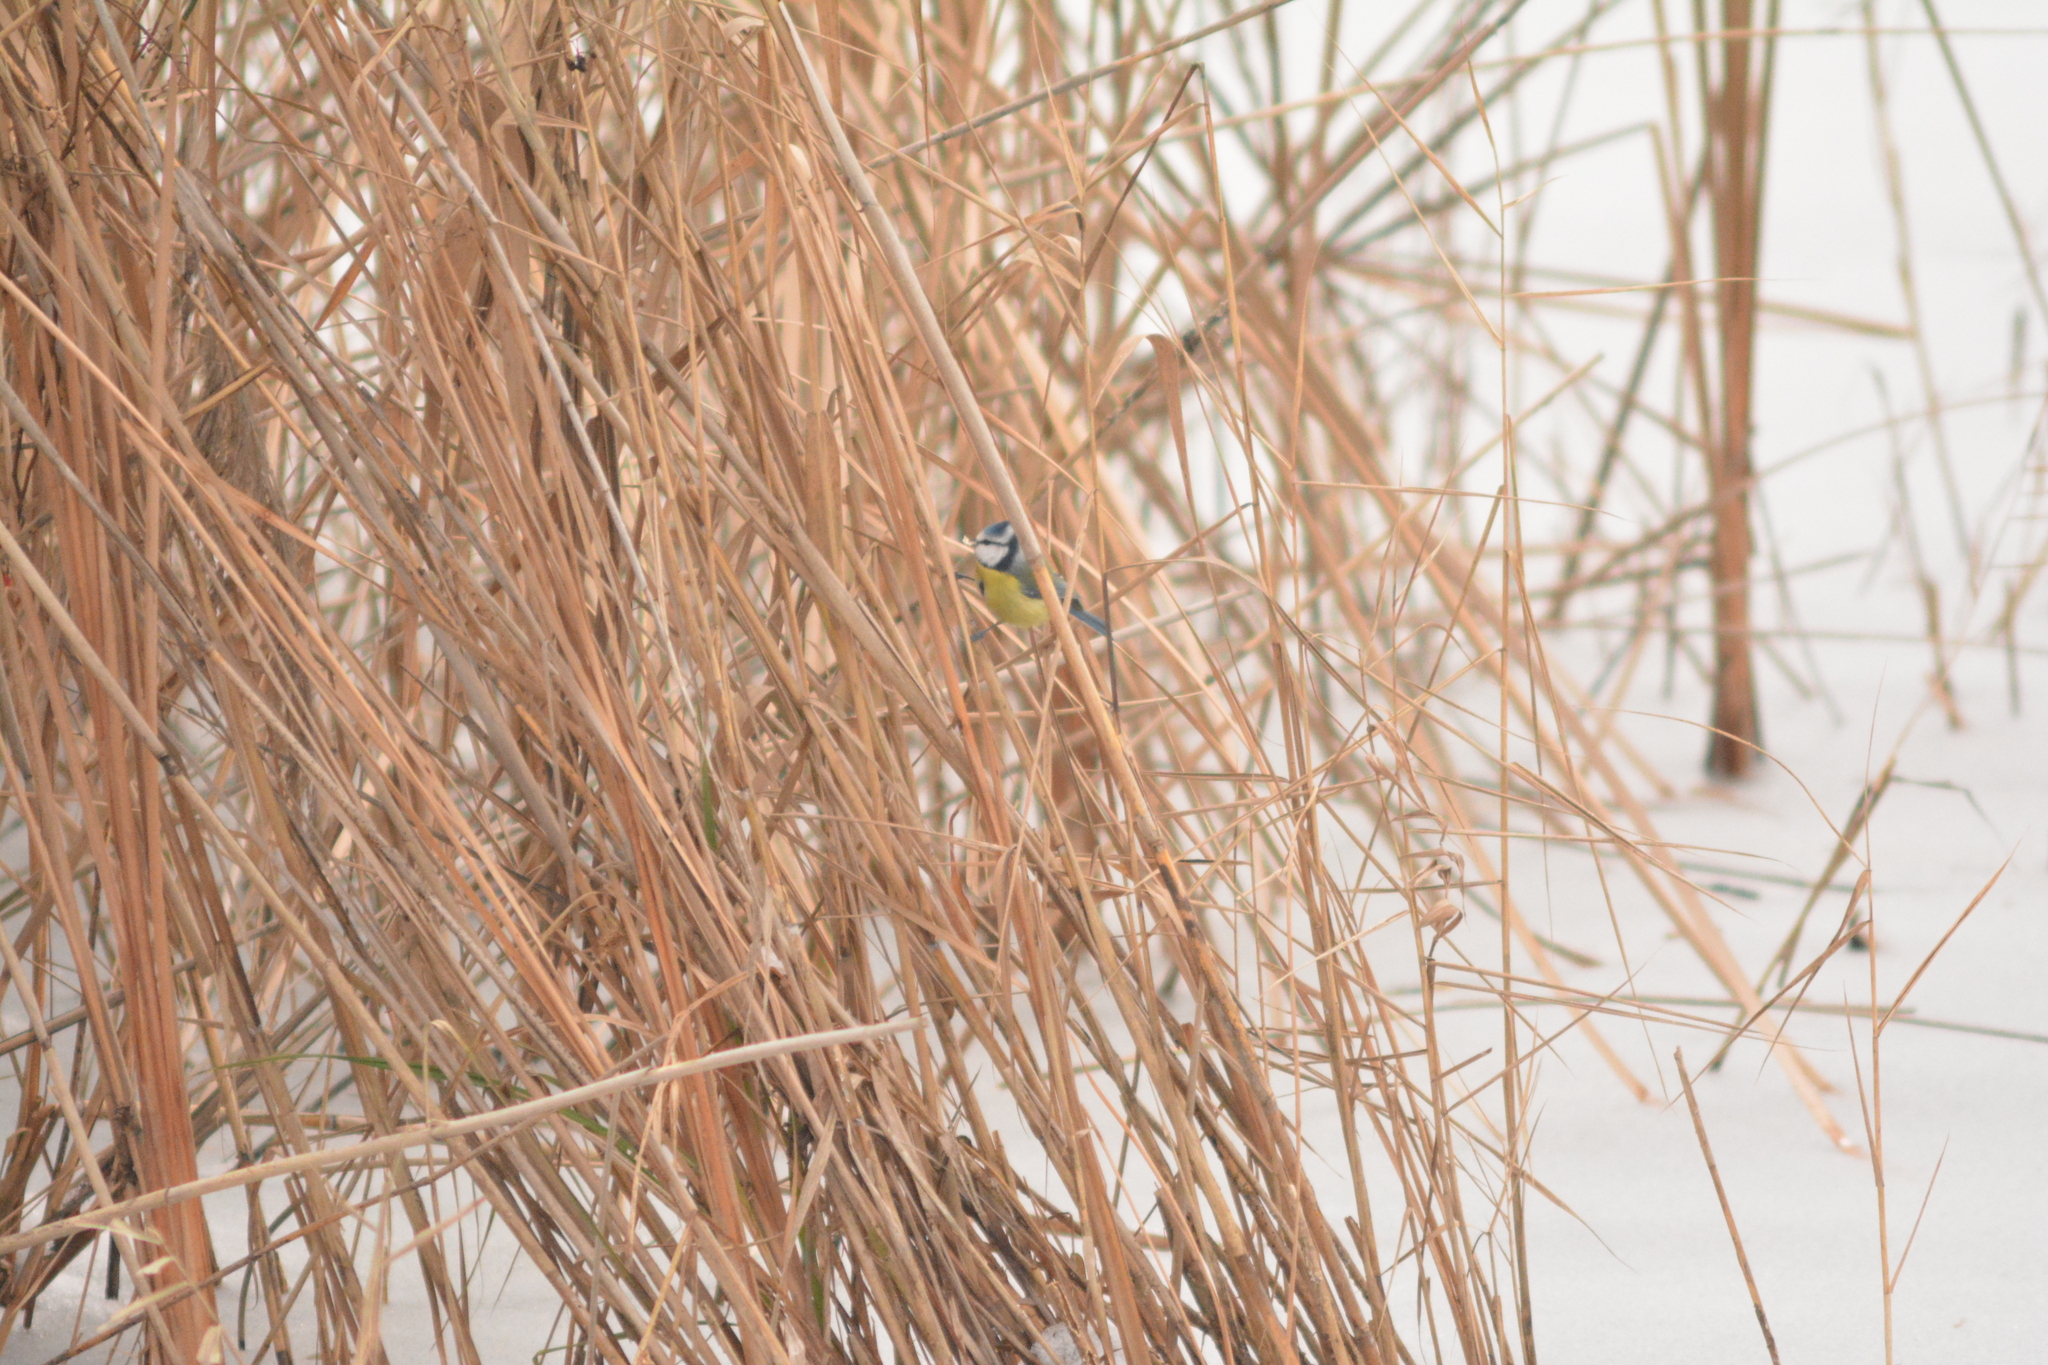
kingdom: Animalia
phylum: Chordata
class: Aves
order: Passeriformes
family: Paridae
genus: Cyanistes
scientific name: Cyanistes caeruleus
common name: Eurasian blue tit
